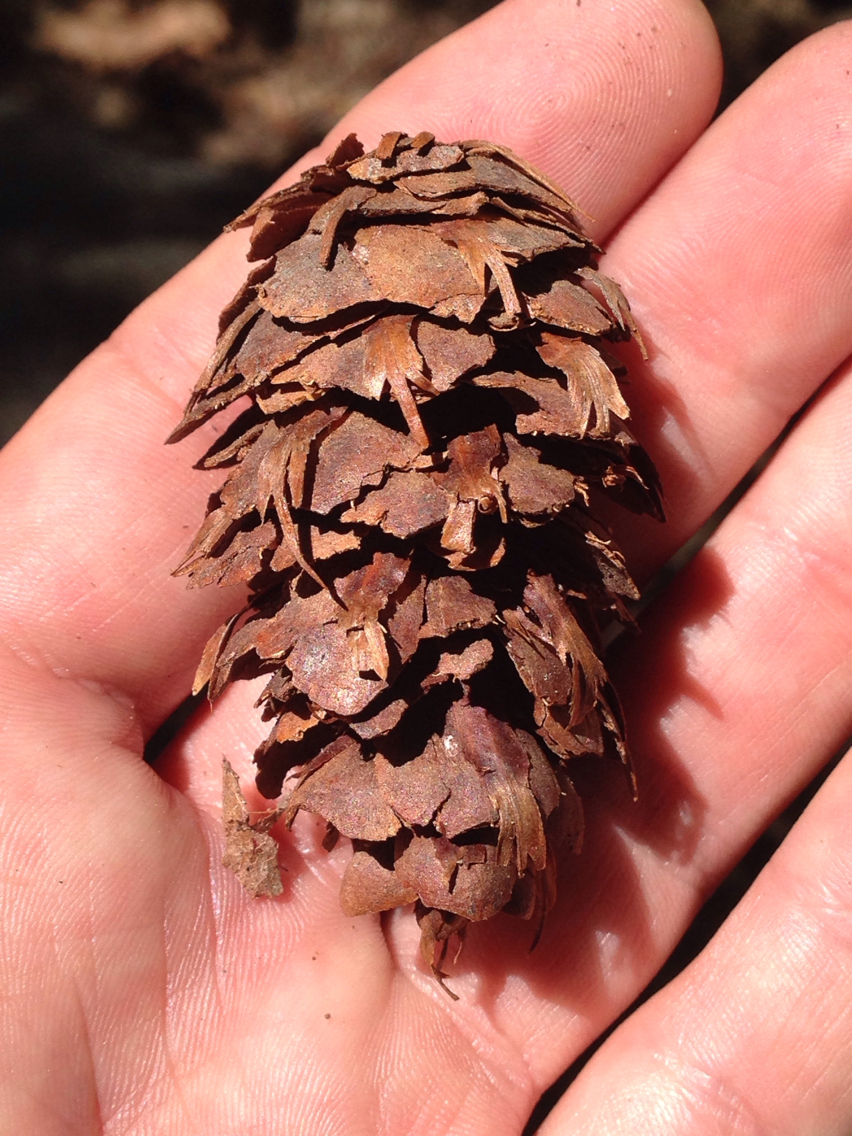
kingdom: Plantae
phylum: Tracheophyta
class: Pinopsida
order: Pinales
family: Pinaceae
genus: Pseudotsuga
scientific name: Pseudotsuga menziesii
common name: Douglas fir
